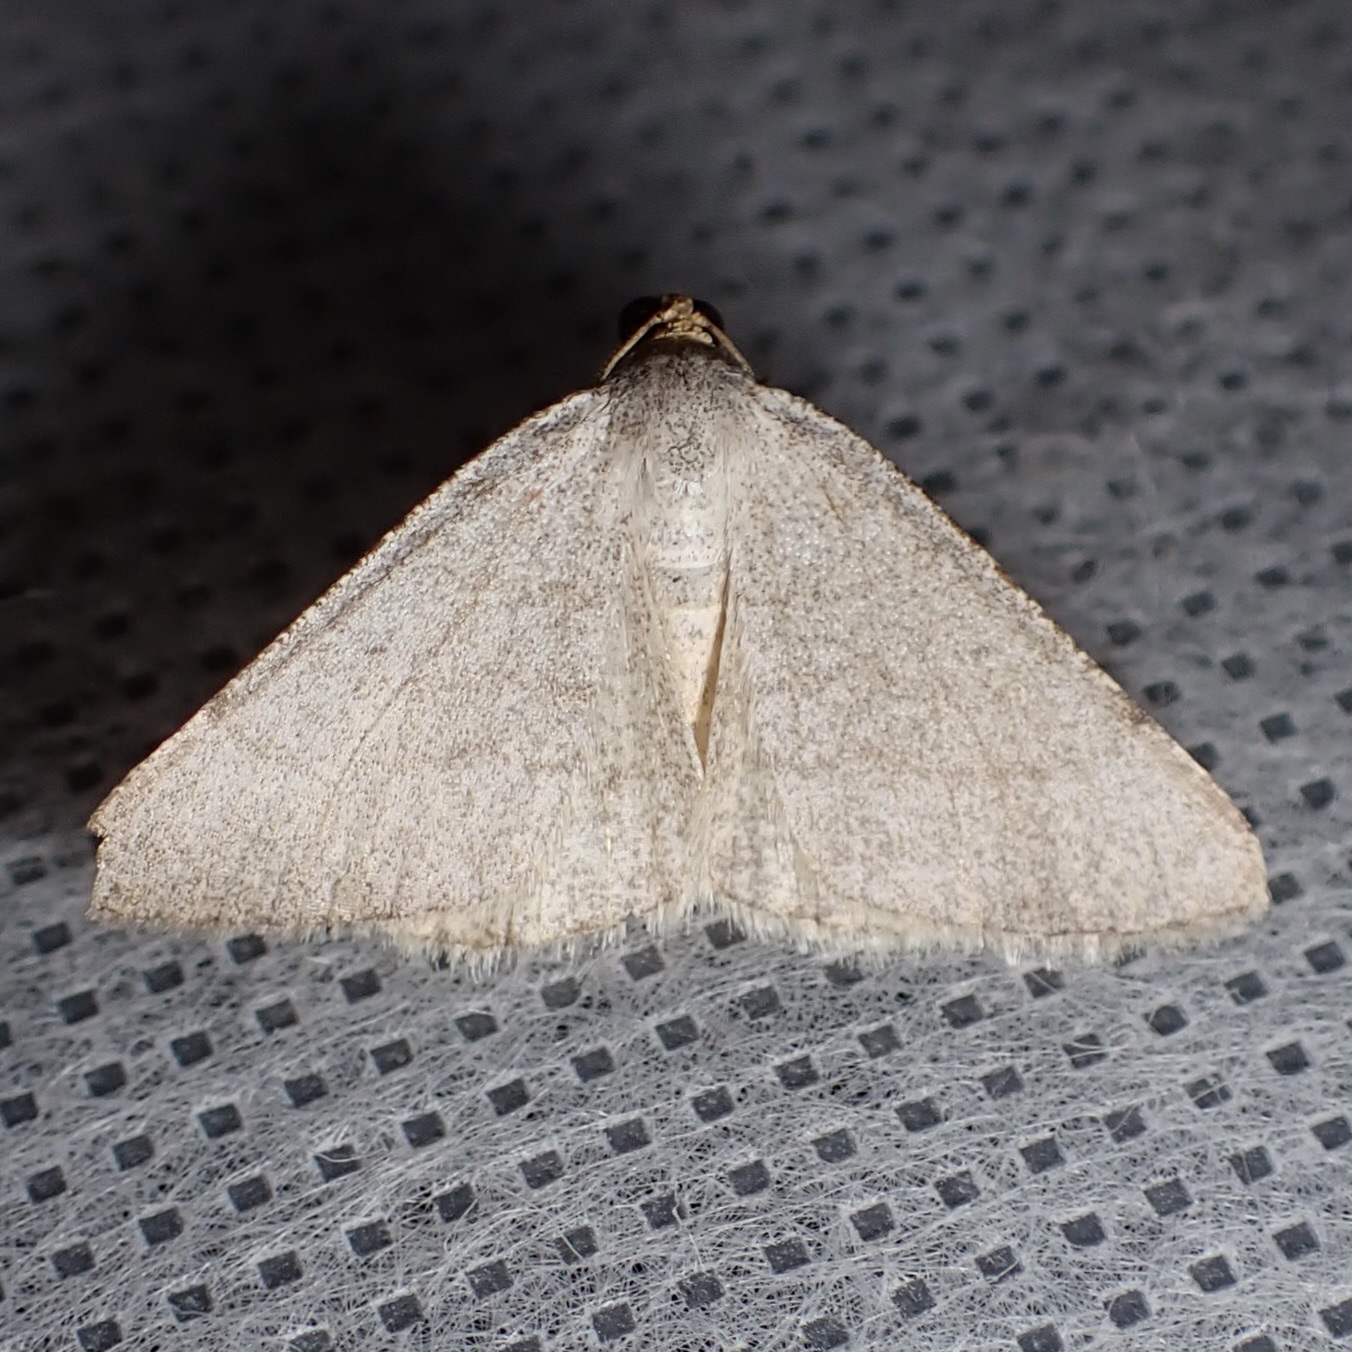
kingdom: Animalia
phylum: Arthropoda
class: Insecta
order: Lepidoptera
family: Geometridae
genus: Macaria
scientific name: Macaria tenebrosata
